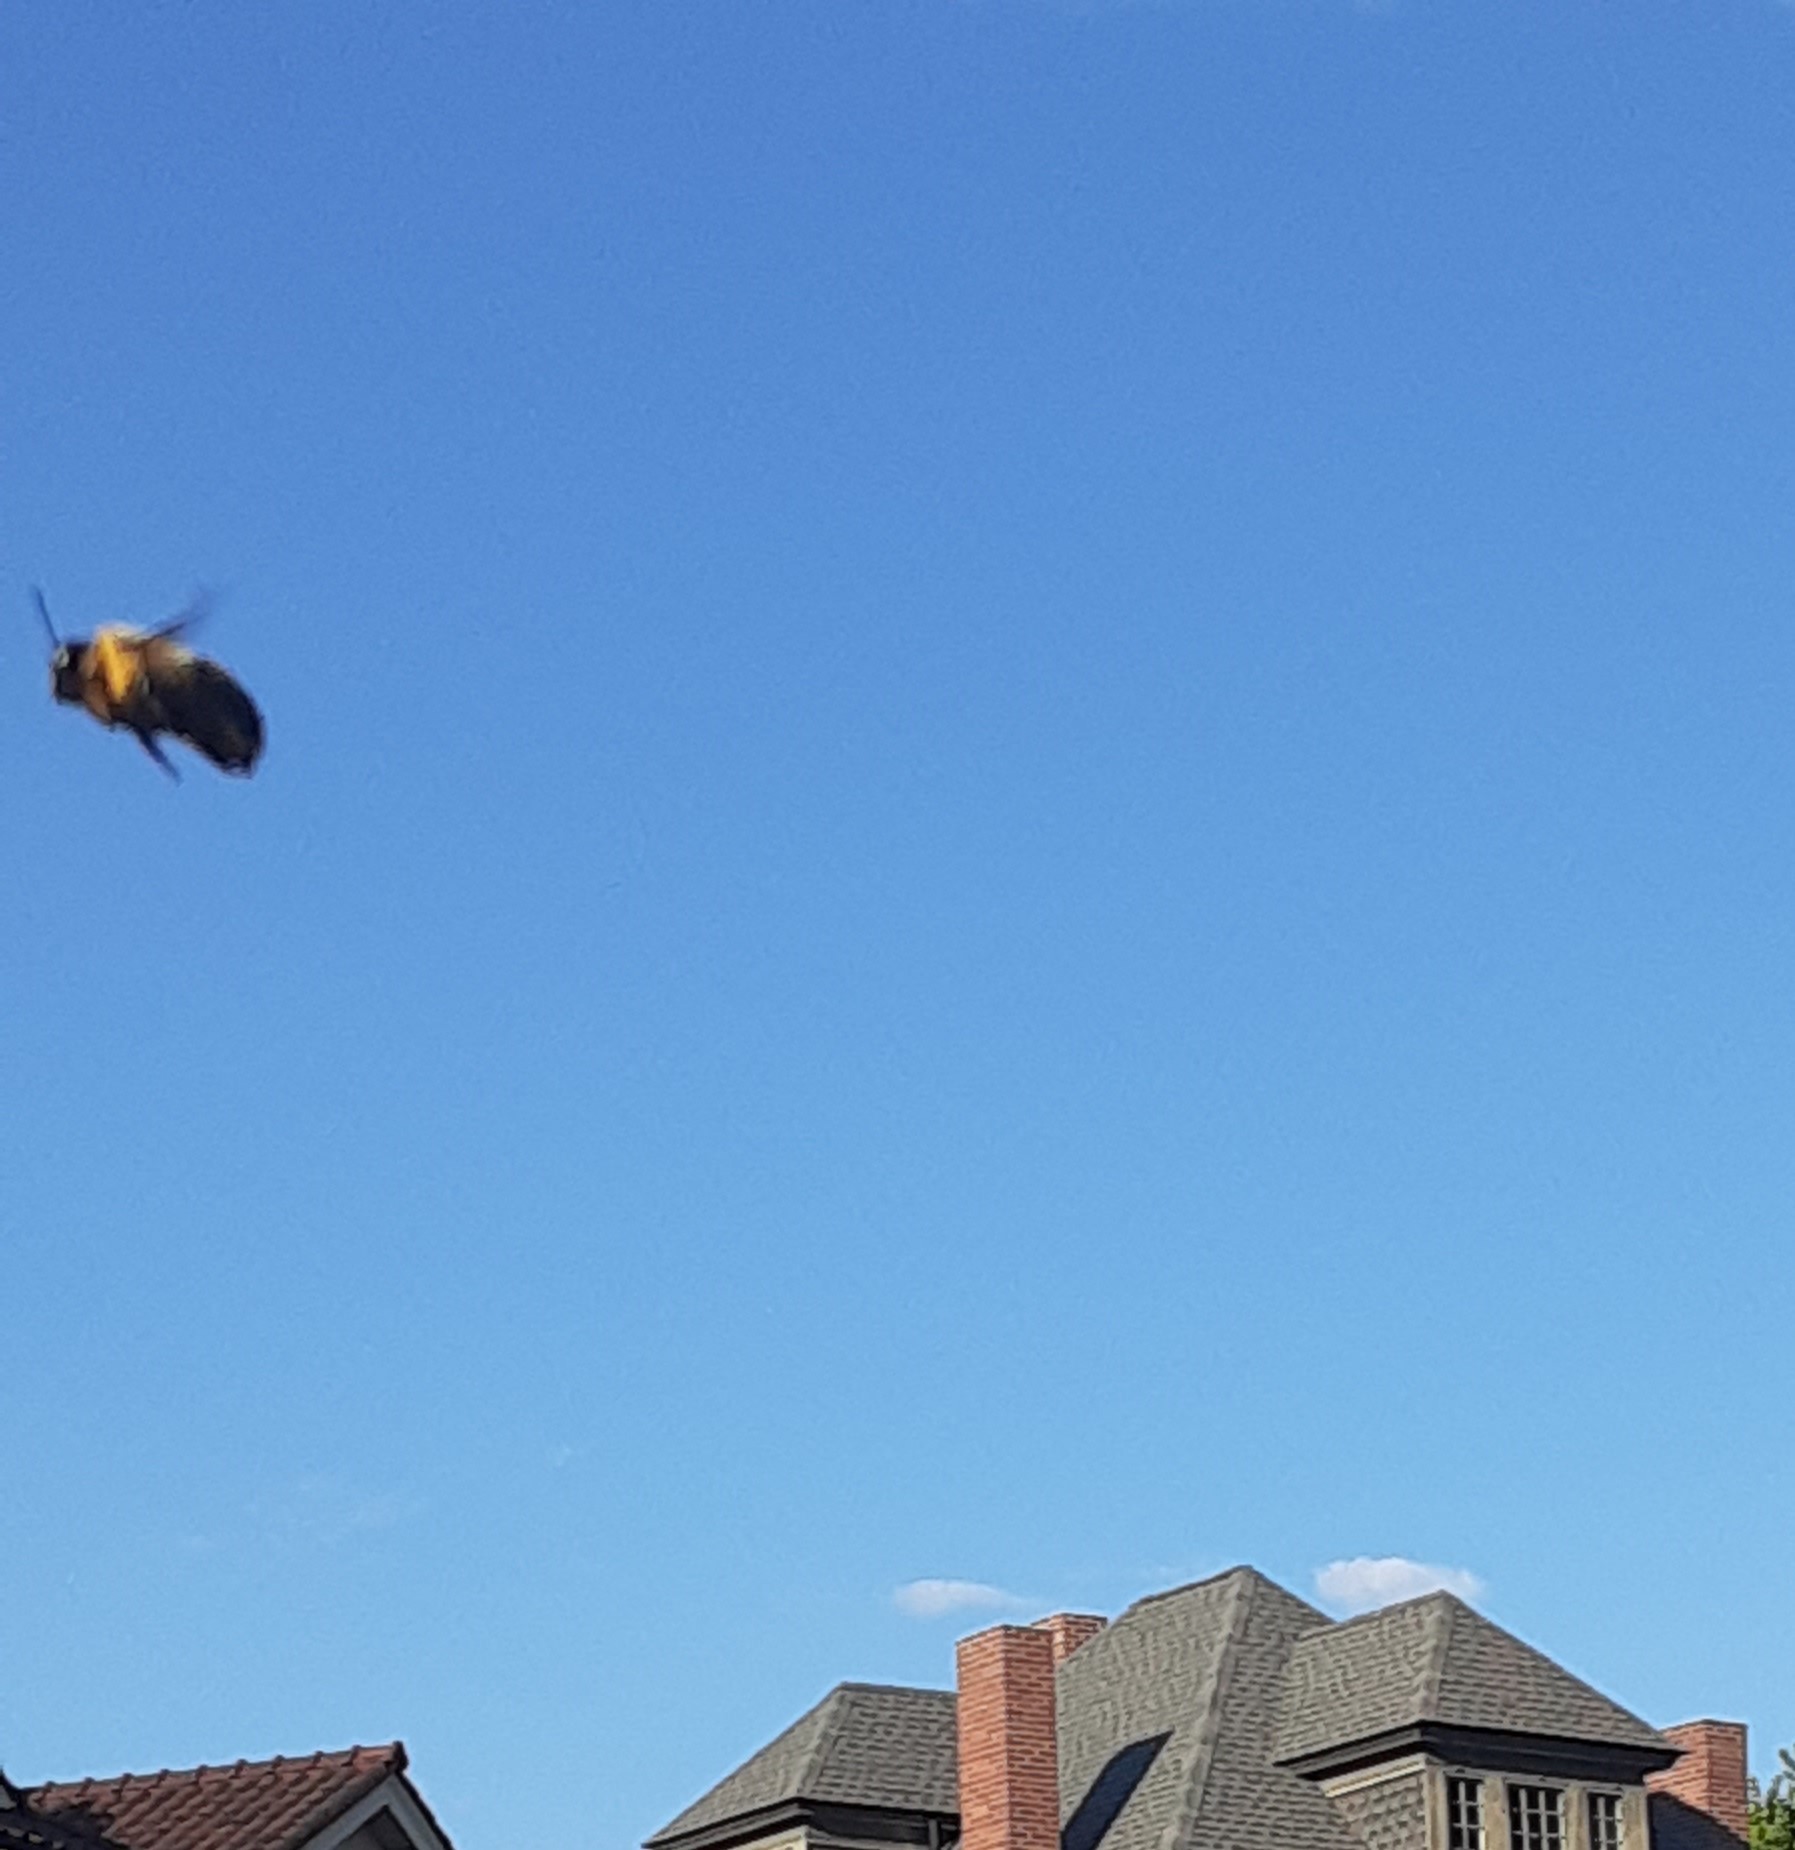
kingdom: Animalia
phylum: Arthropoda
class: Insecta
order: Hymenoptera
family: Apidae
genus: Xylocopa
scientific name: Xylocopa virginica
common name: Carpenter bee
